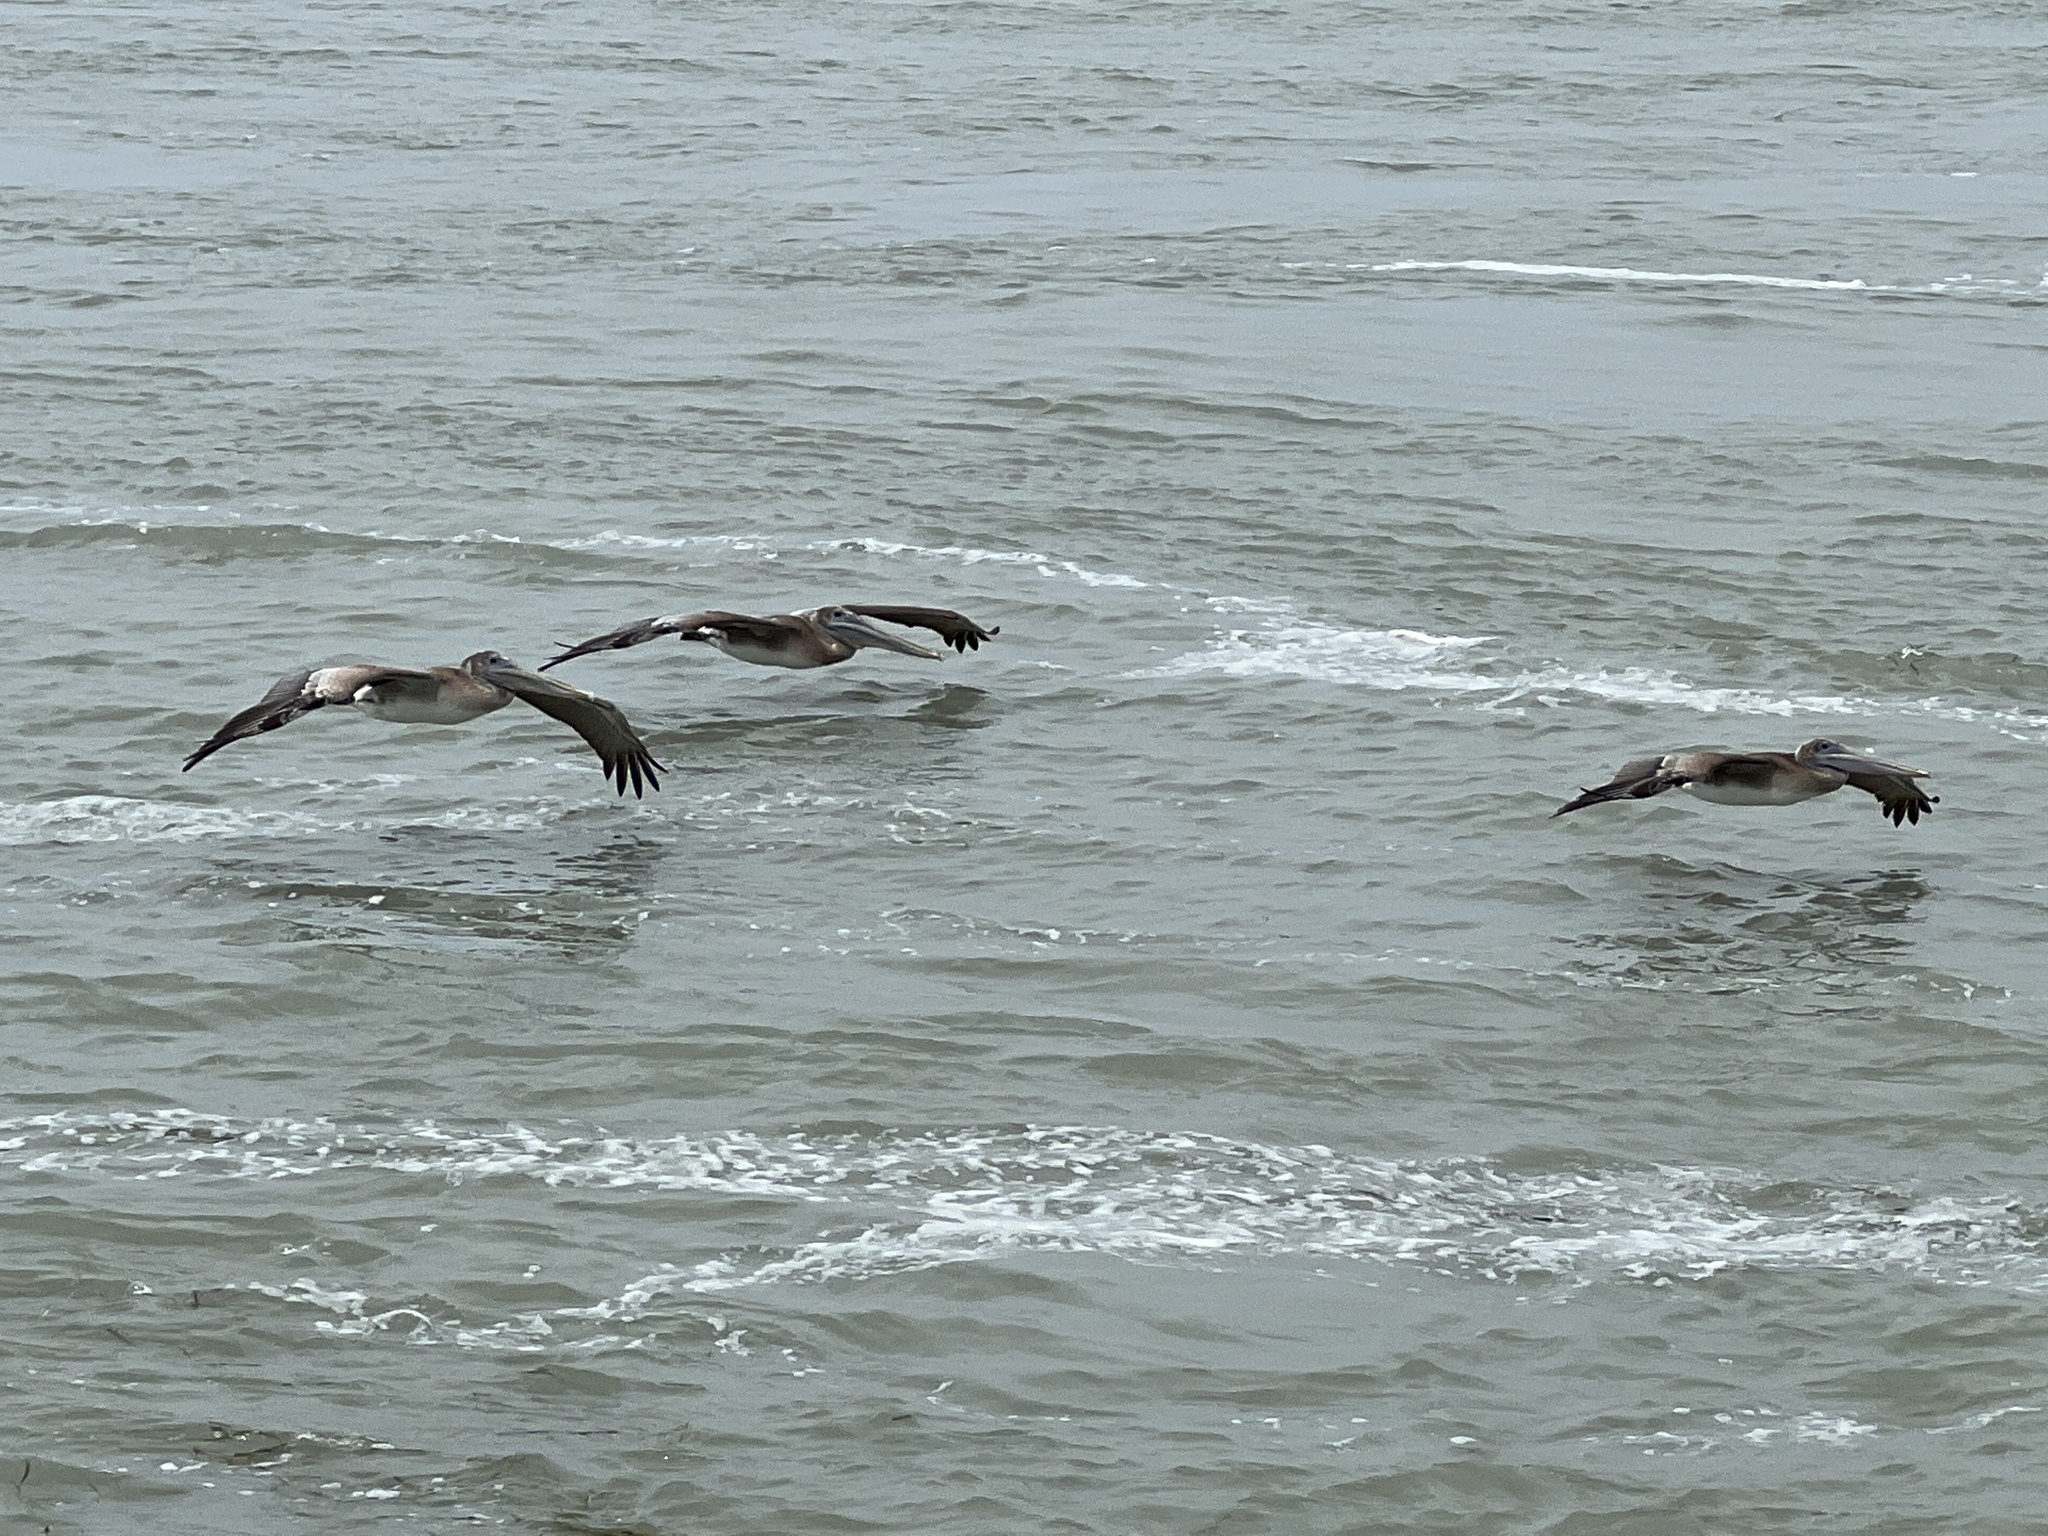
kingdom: Animalia
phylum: Chordata
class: Aves
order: Pelecaniformes
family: Pelecanidae
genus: Pelecanus
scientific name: Pelecanus occidentalis
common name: Brown pelican
